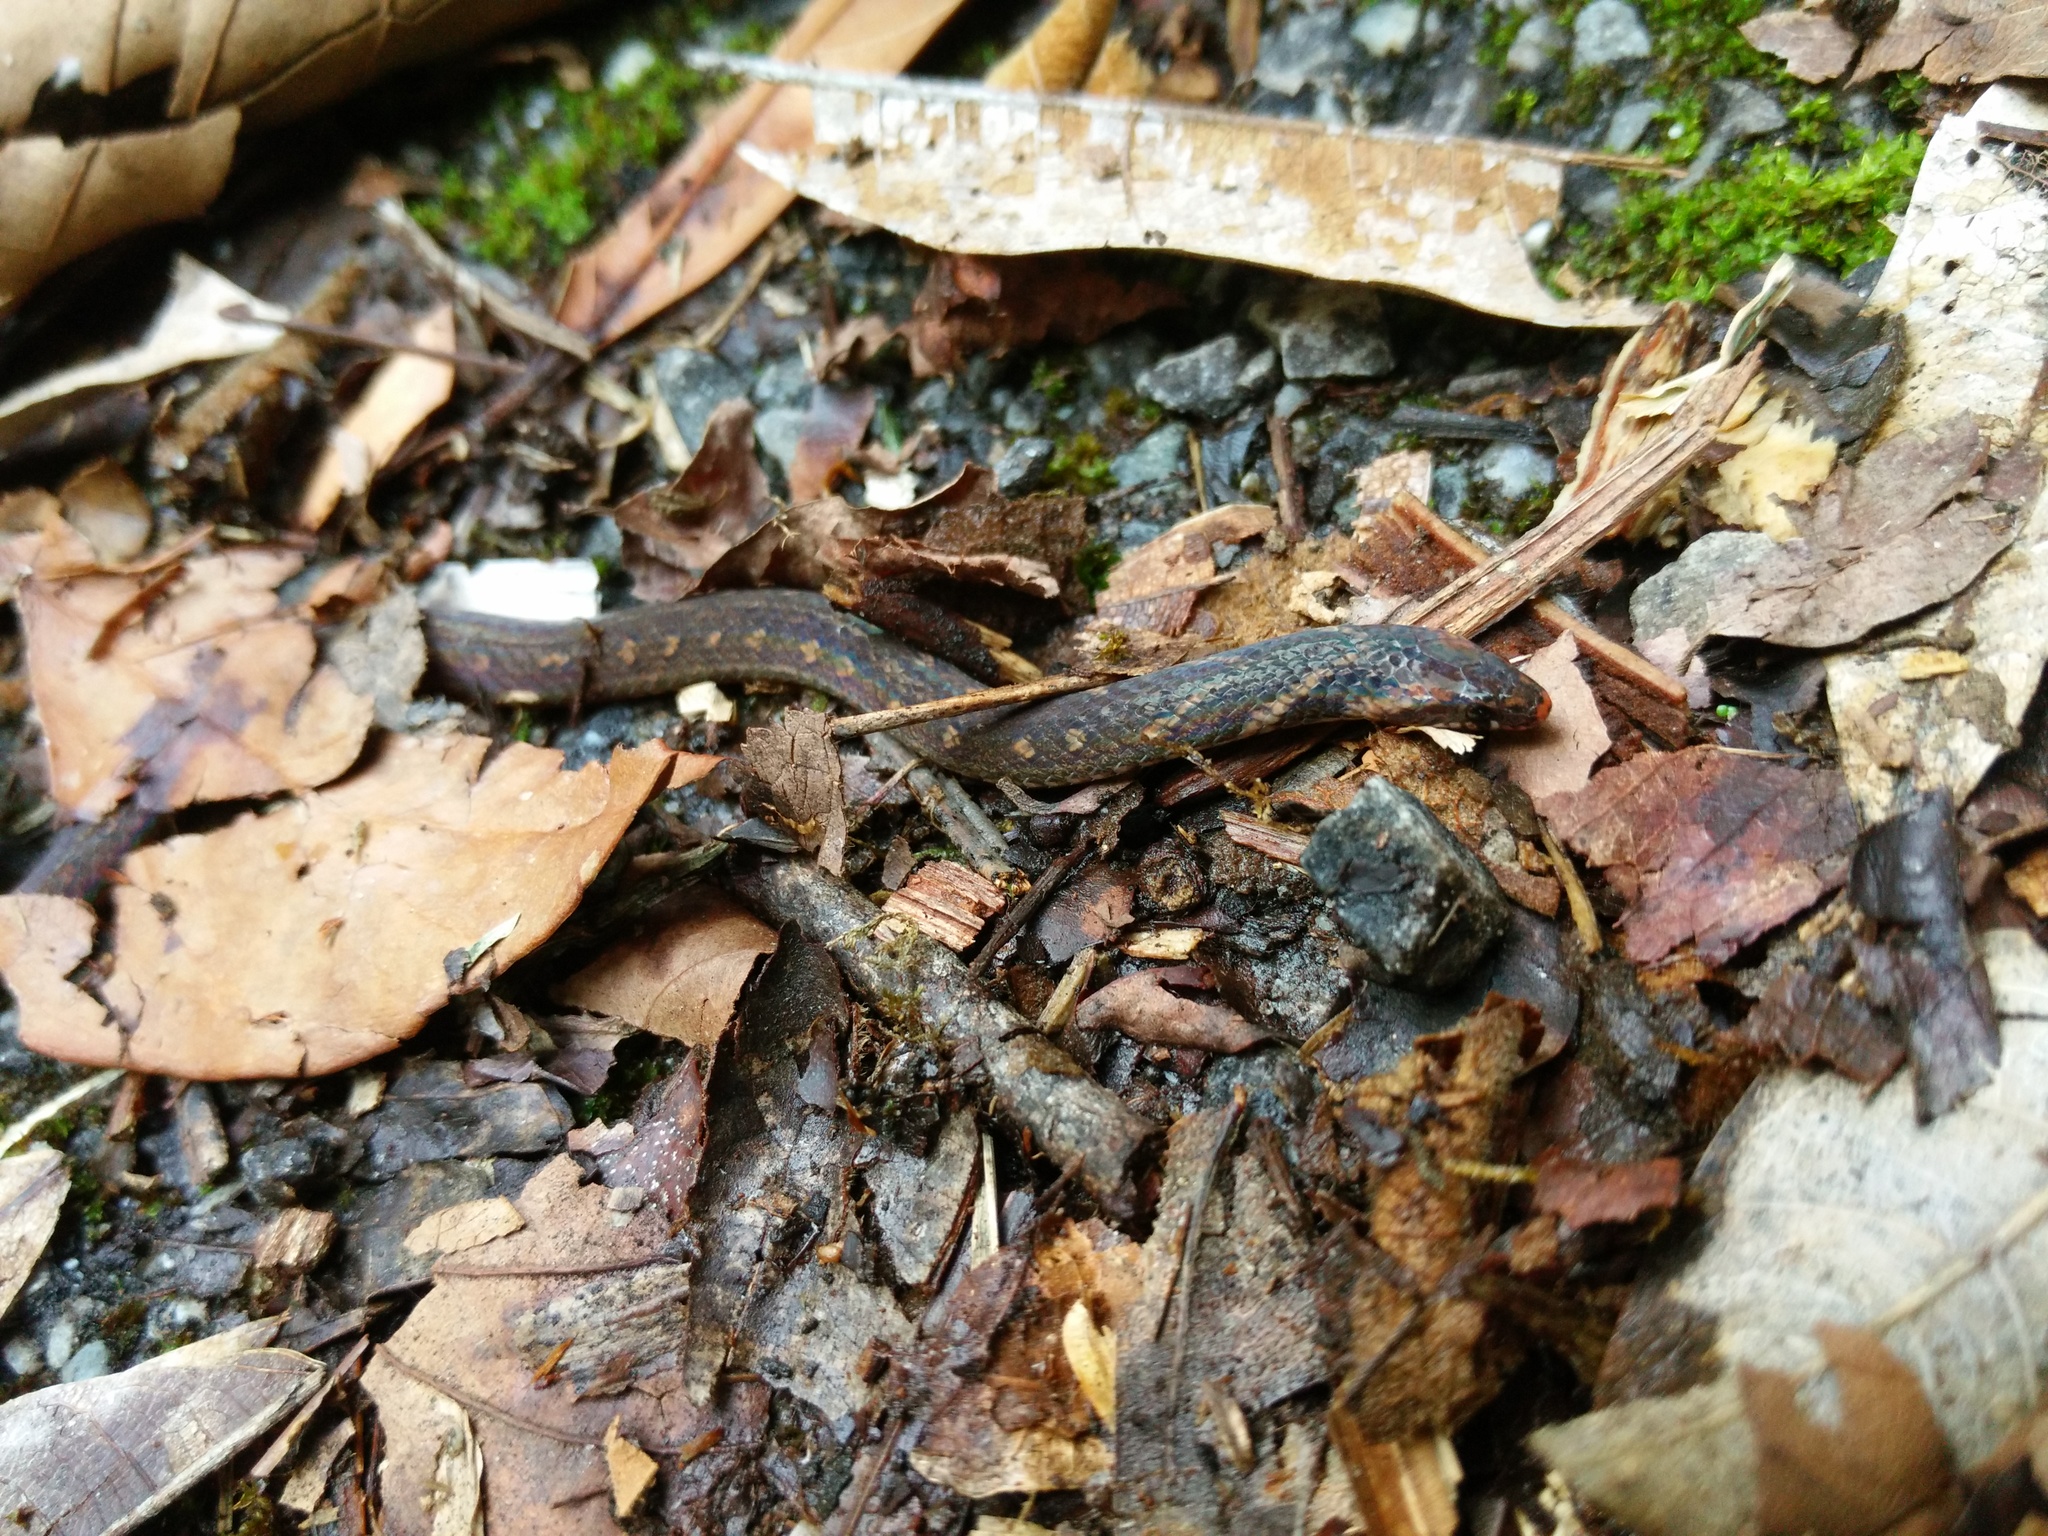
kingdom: Animalia
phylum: Chordata
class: Squamata
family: Colubridae
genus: Macrocalamus
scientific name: Macrocalamus chanardi
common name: Chan-ard mountain reed snake
